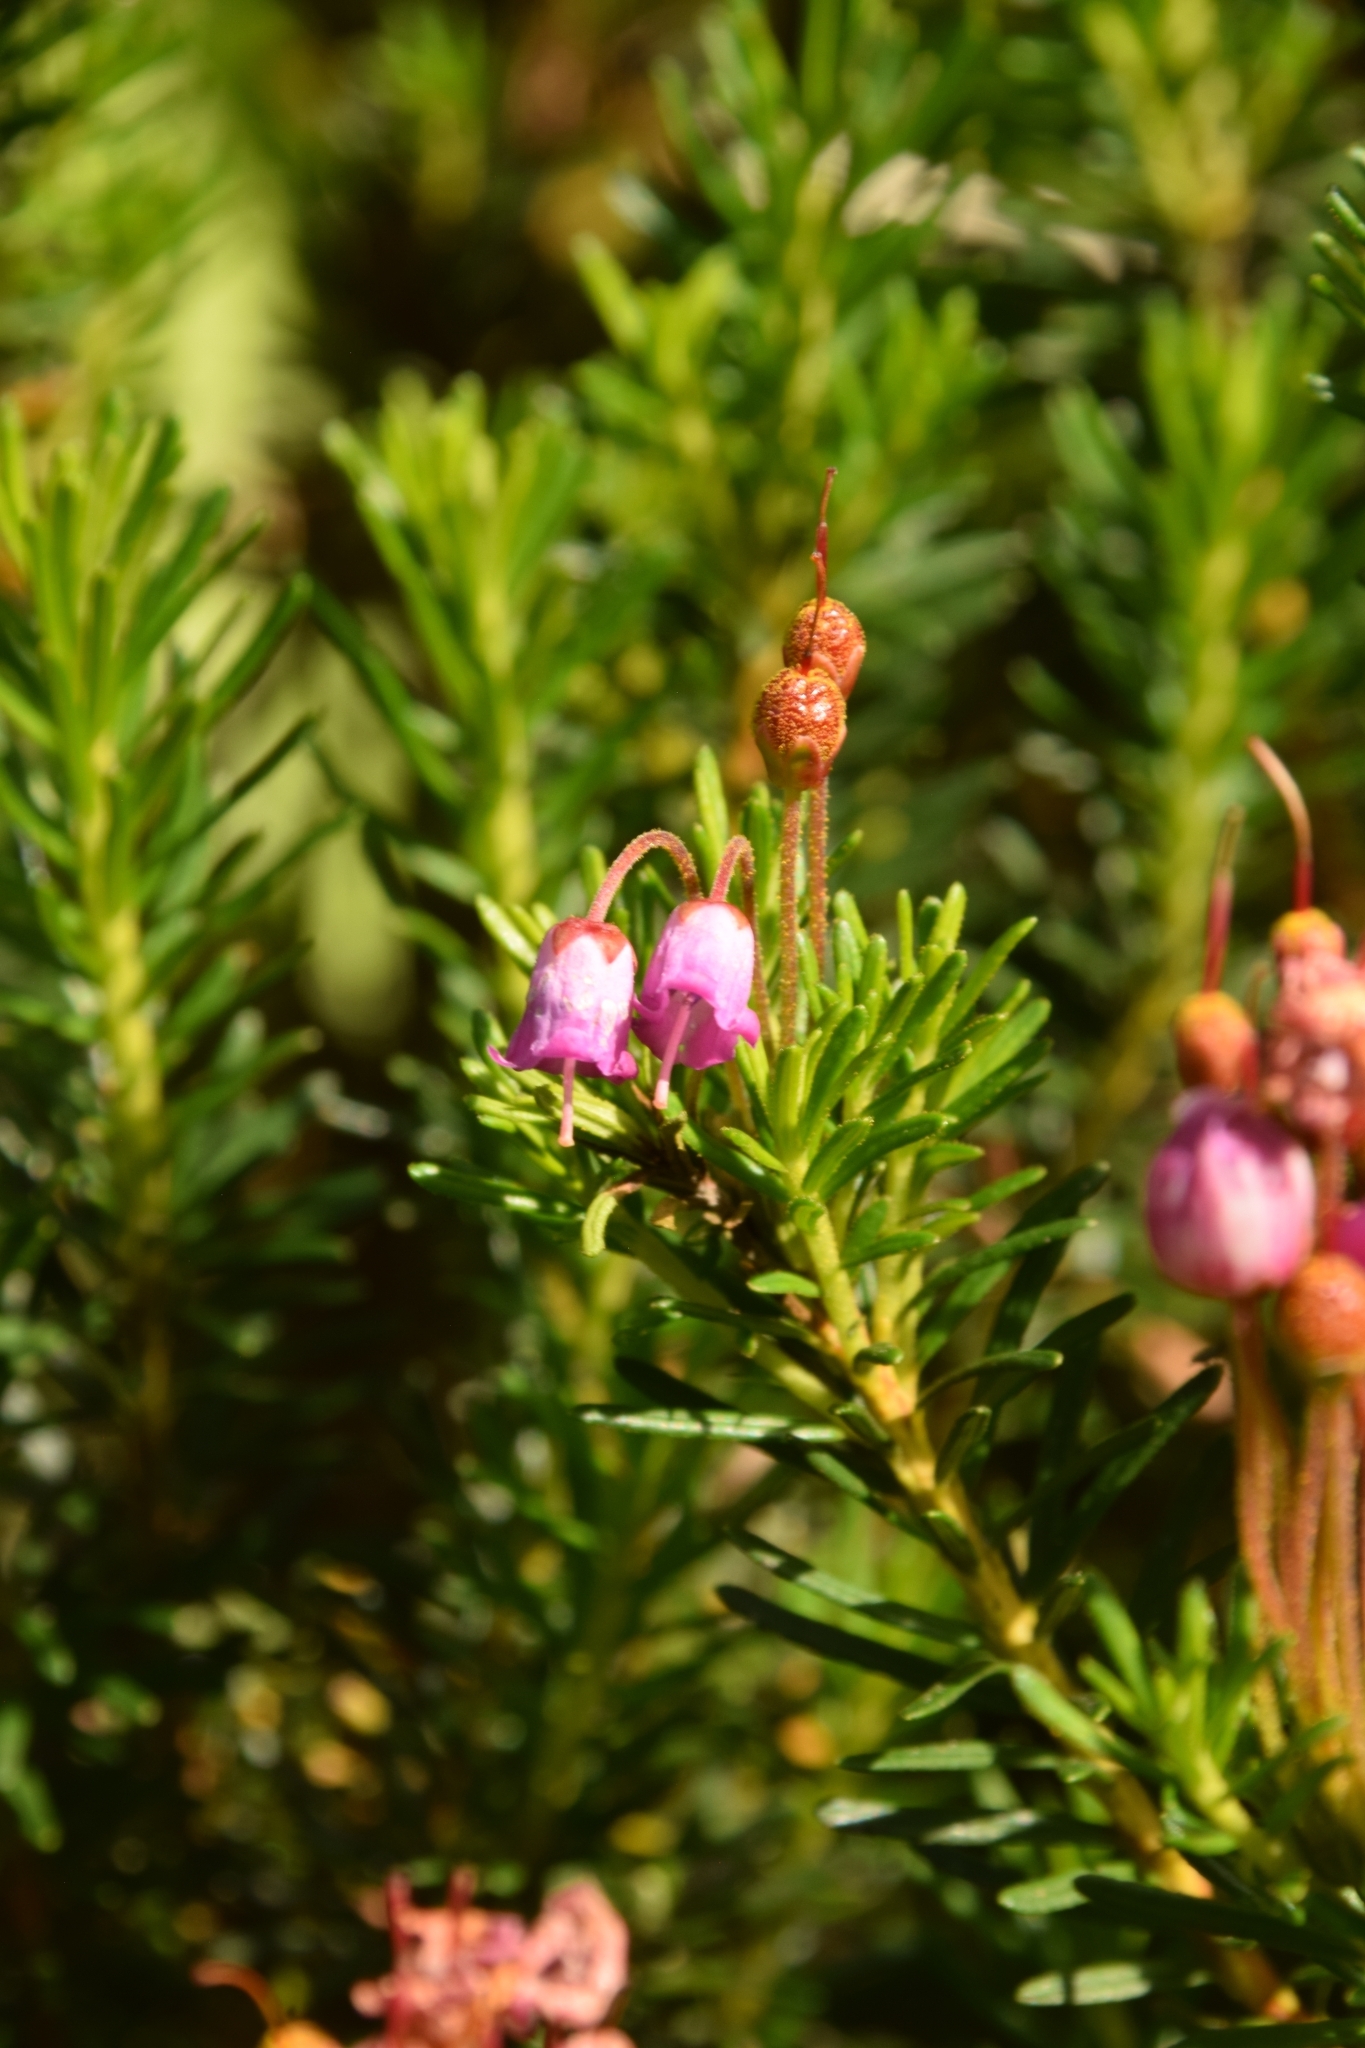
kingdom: Plantae
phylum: Tracheophyta
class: Magnoliopsida
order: Ericales
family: Ericaceae
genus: Phyllodoce
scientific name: Phyllodoce empetriformis
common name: Pink mountain heather
